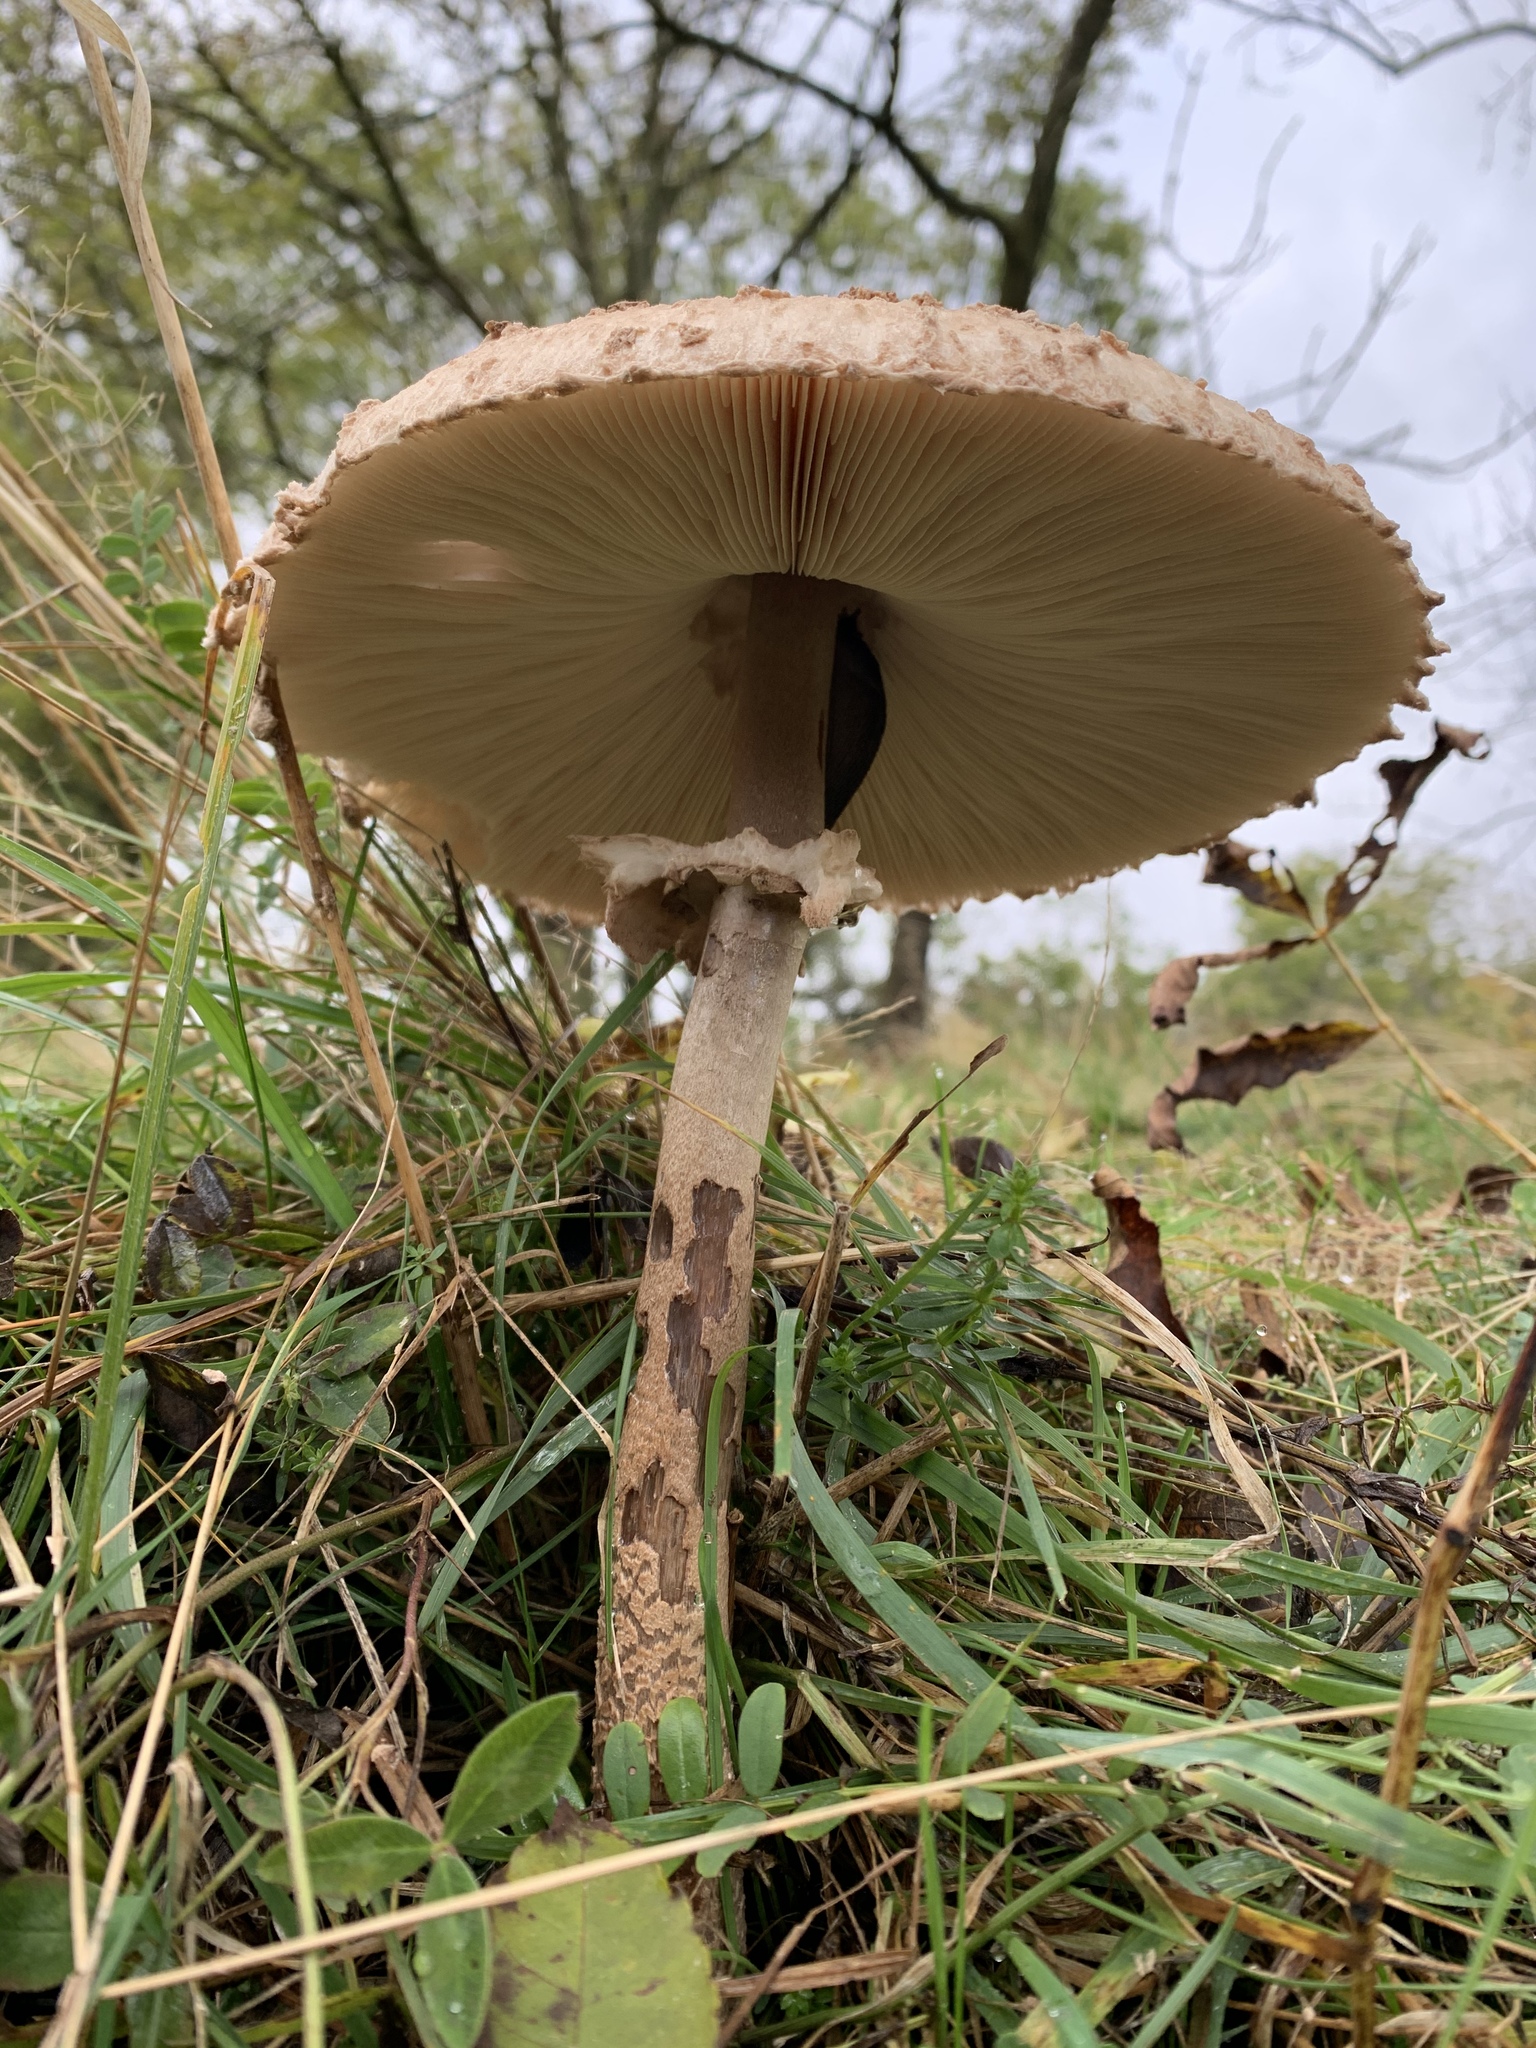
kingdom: Fungi
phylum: Basidiomycota
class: Agaricomycetes
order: Agaricales
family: Agaricaceae
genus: Macrolepiota
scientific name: Macrolepiota procera
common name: Parasol
